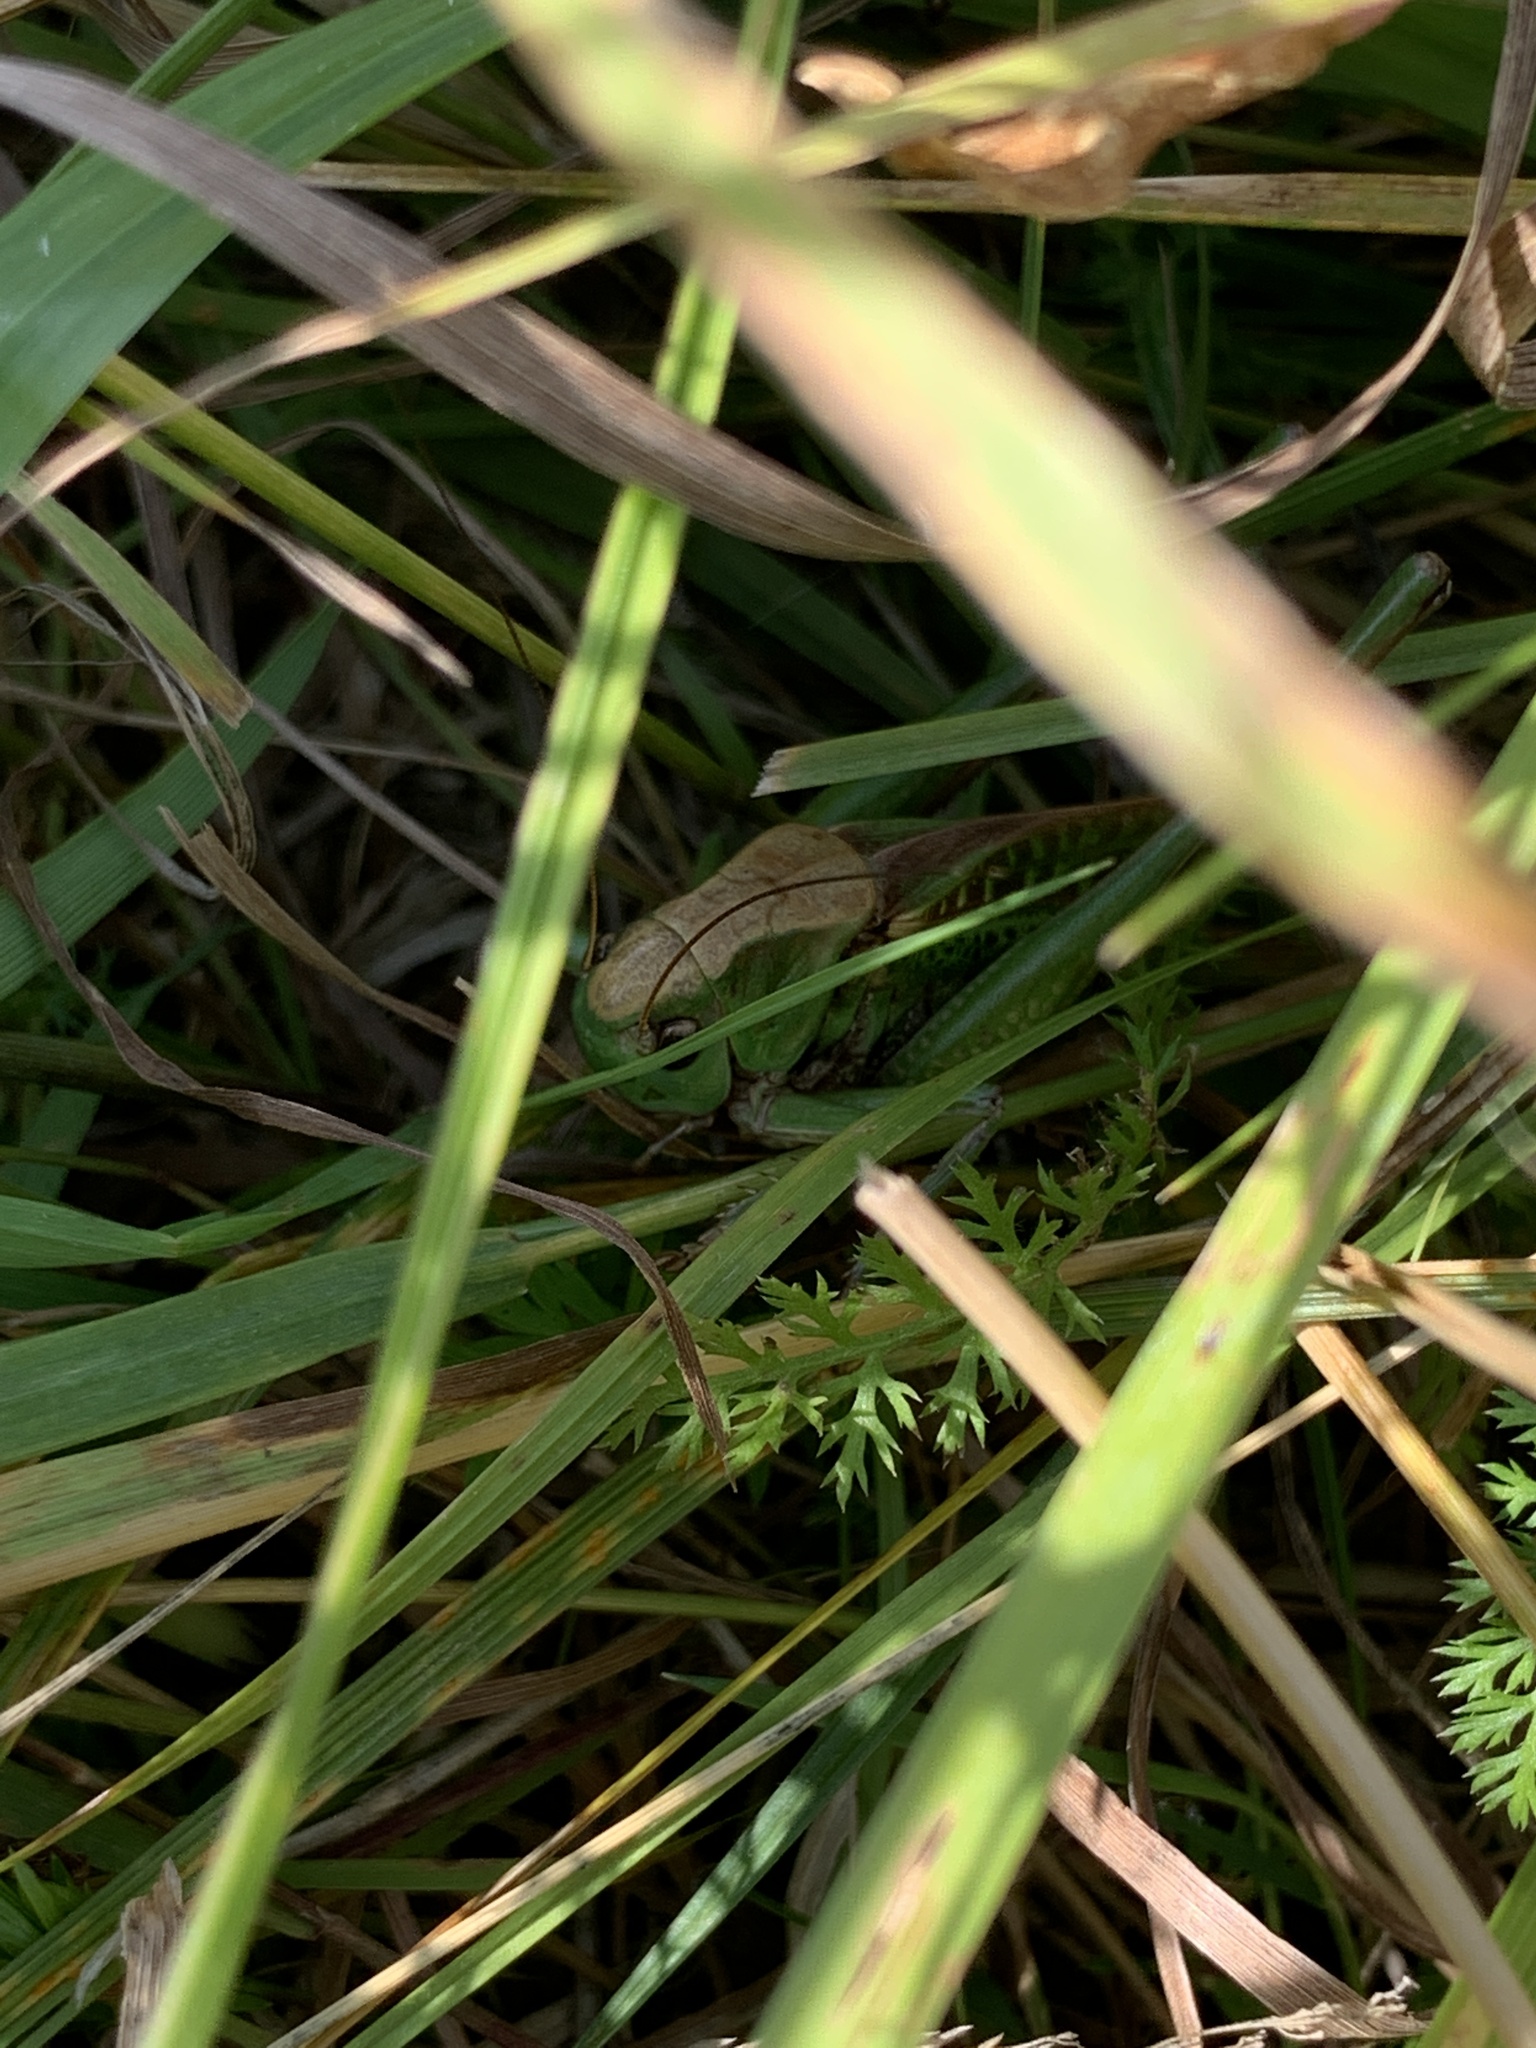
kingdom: Animalia
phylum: Arthropoda
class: Insecta
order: Orthoptera
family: Tettigoniidae
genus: Decticus
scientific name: Decticus verrucivorus
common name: Wart-biter
